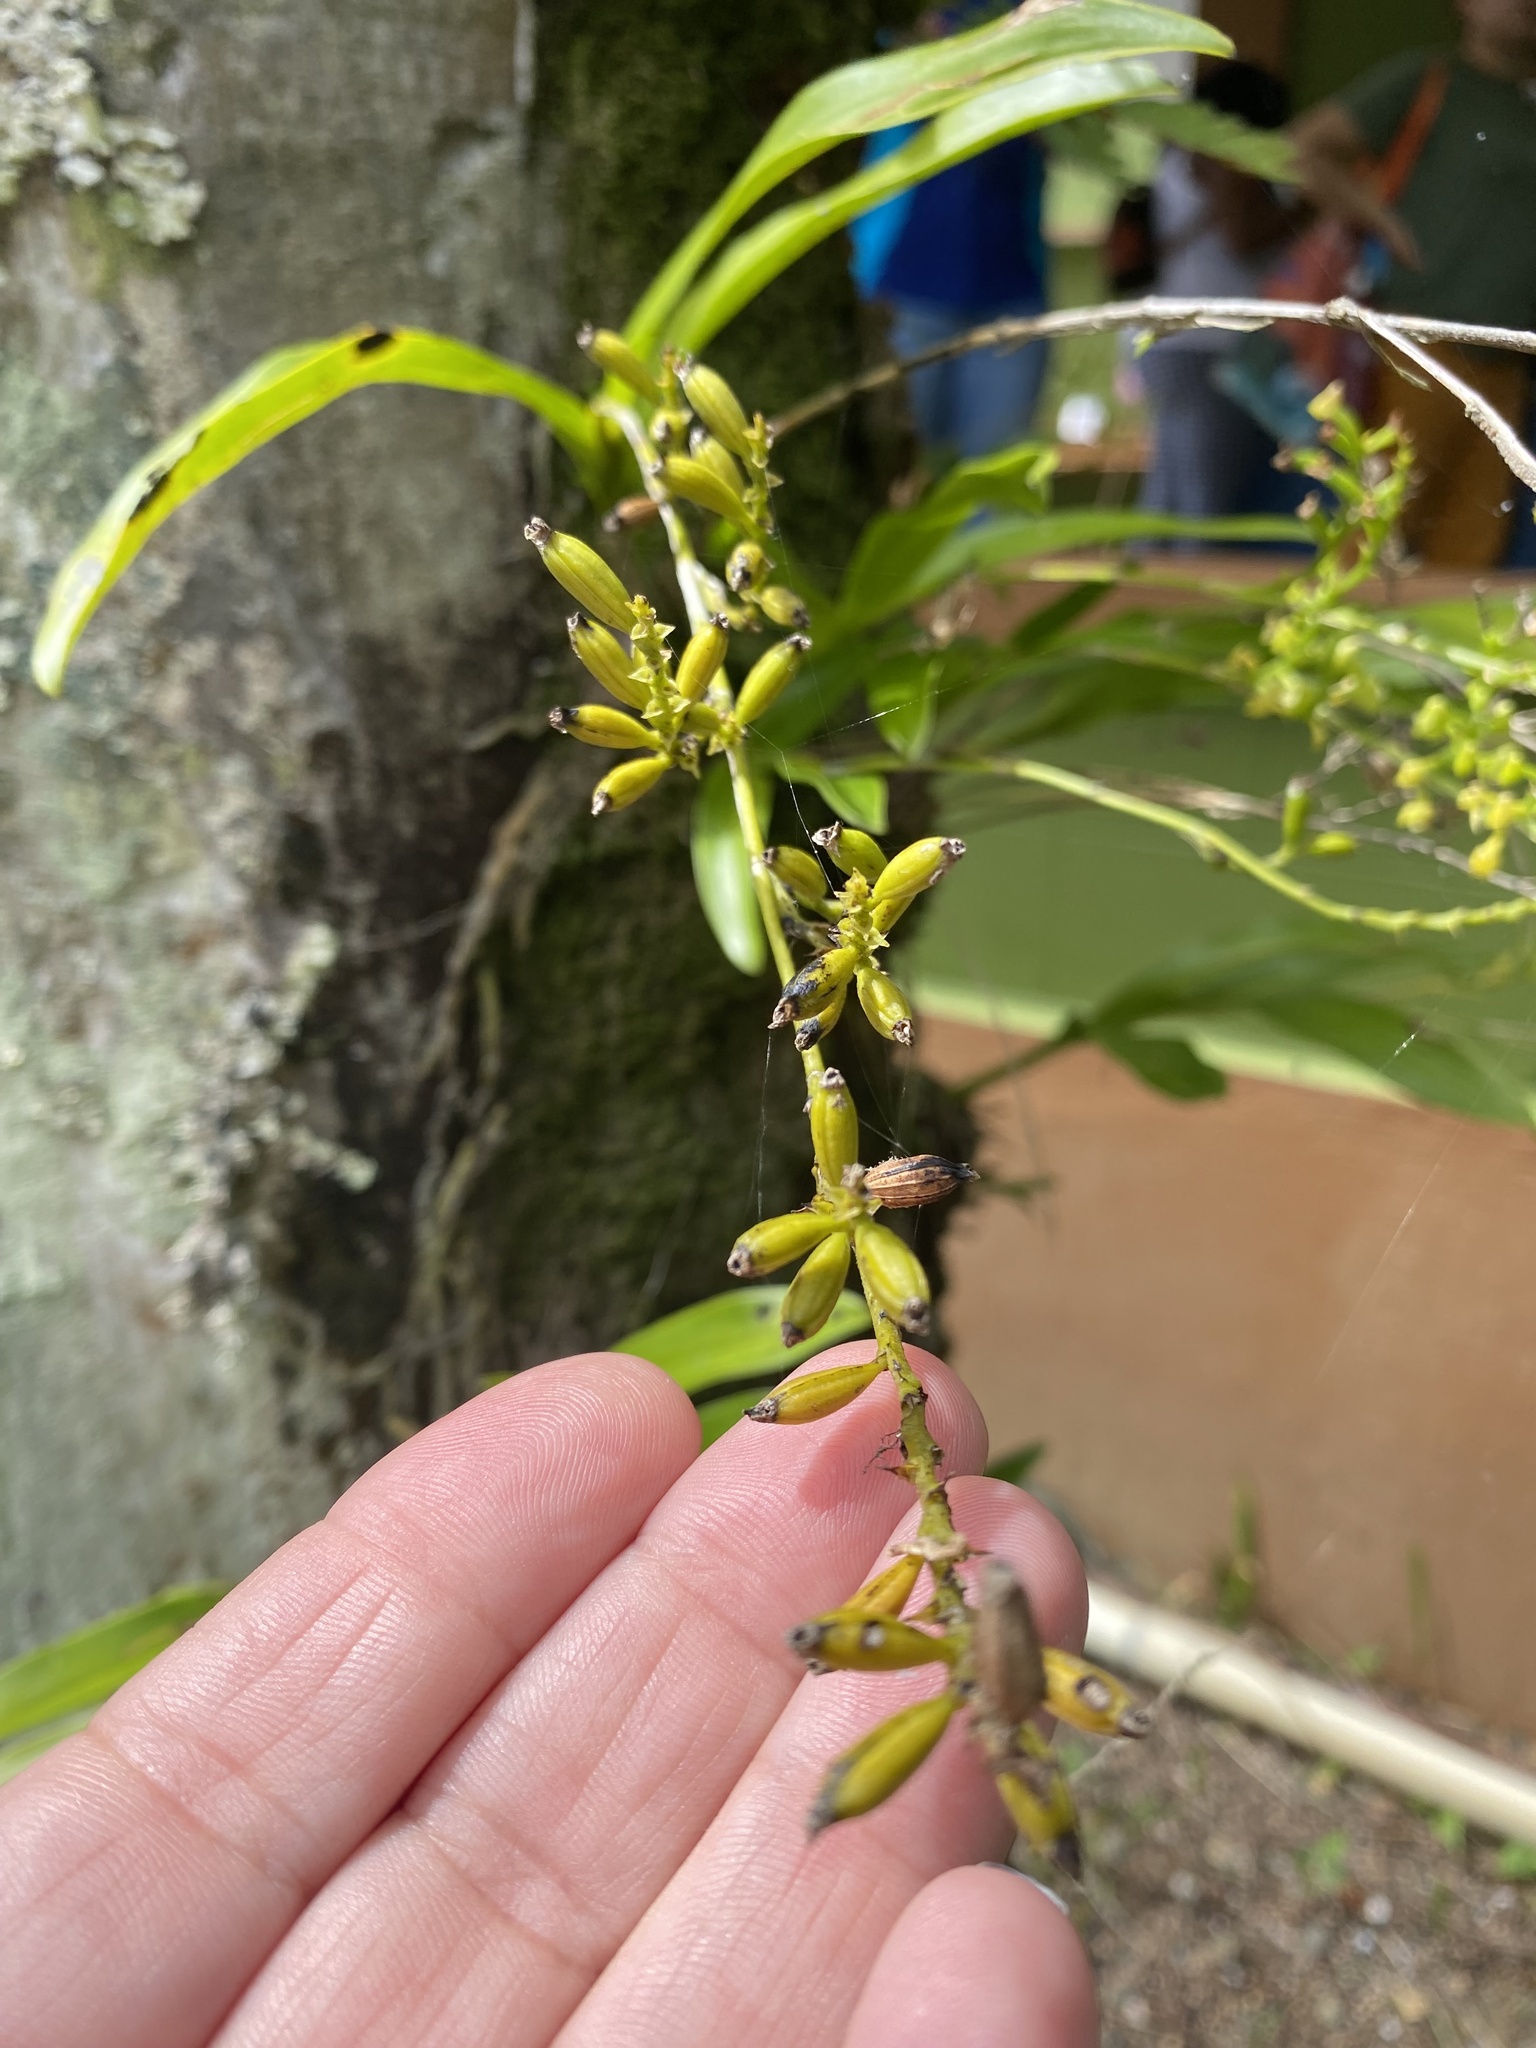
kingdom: Plantae
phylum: Tracheophyta
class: Liliopsida
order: Asparagales
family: Orchidaceae
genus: Polystachya
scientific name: Polystachya concreta
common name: Greater yellowspike orchid
